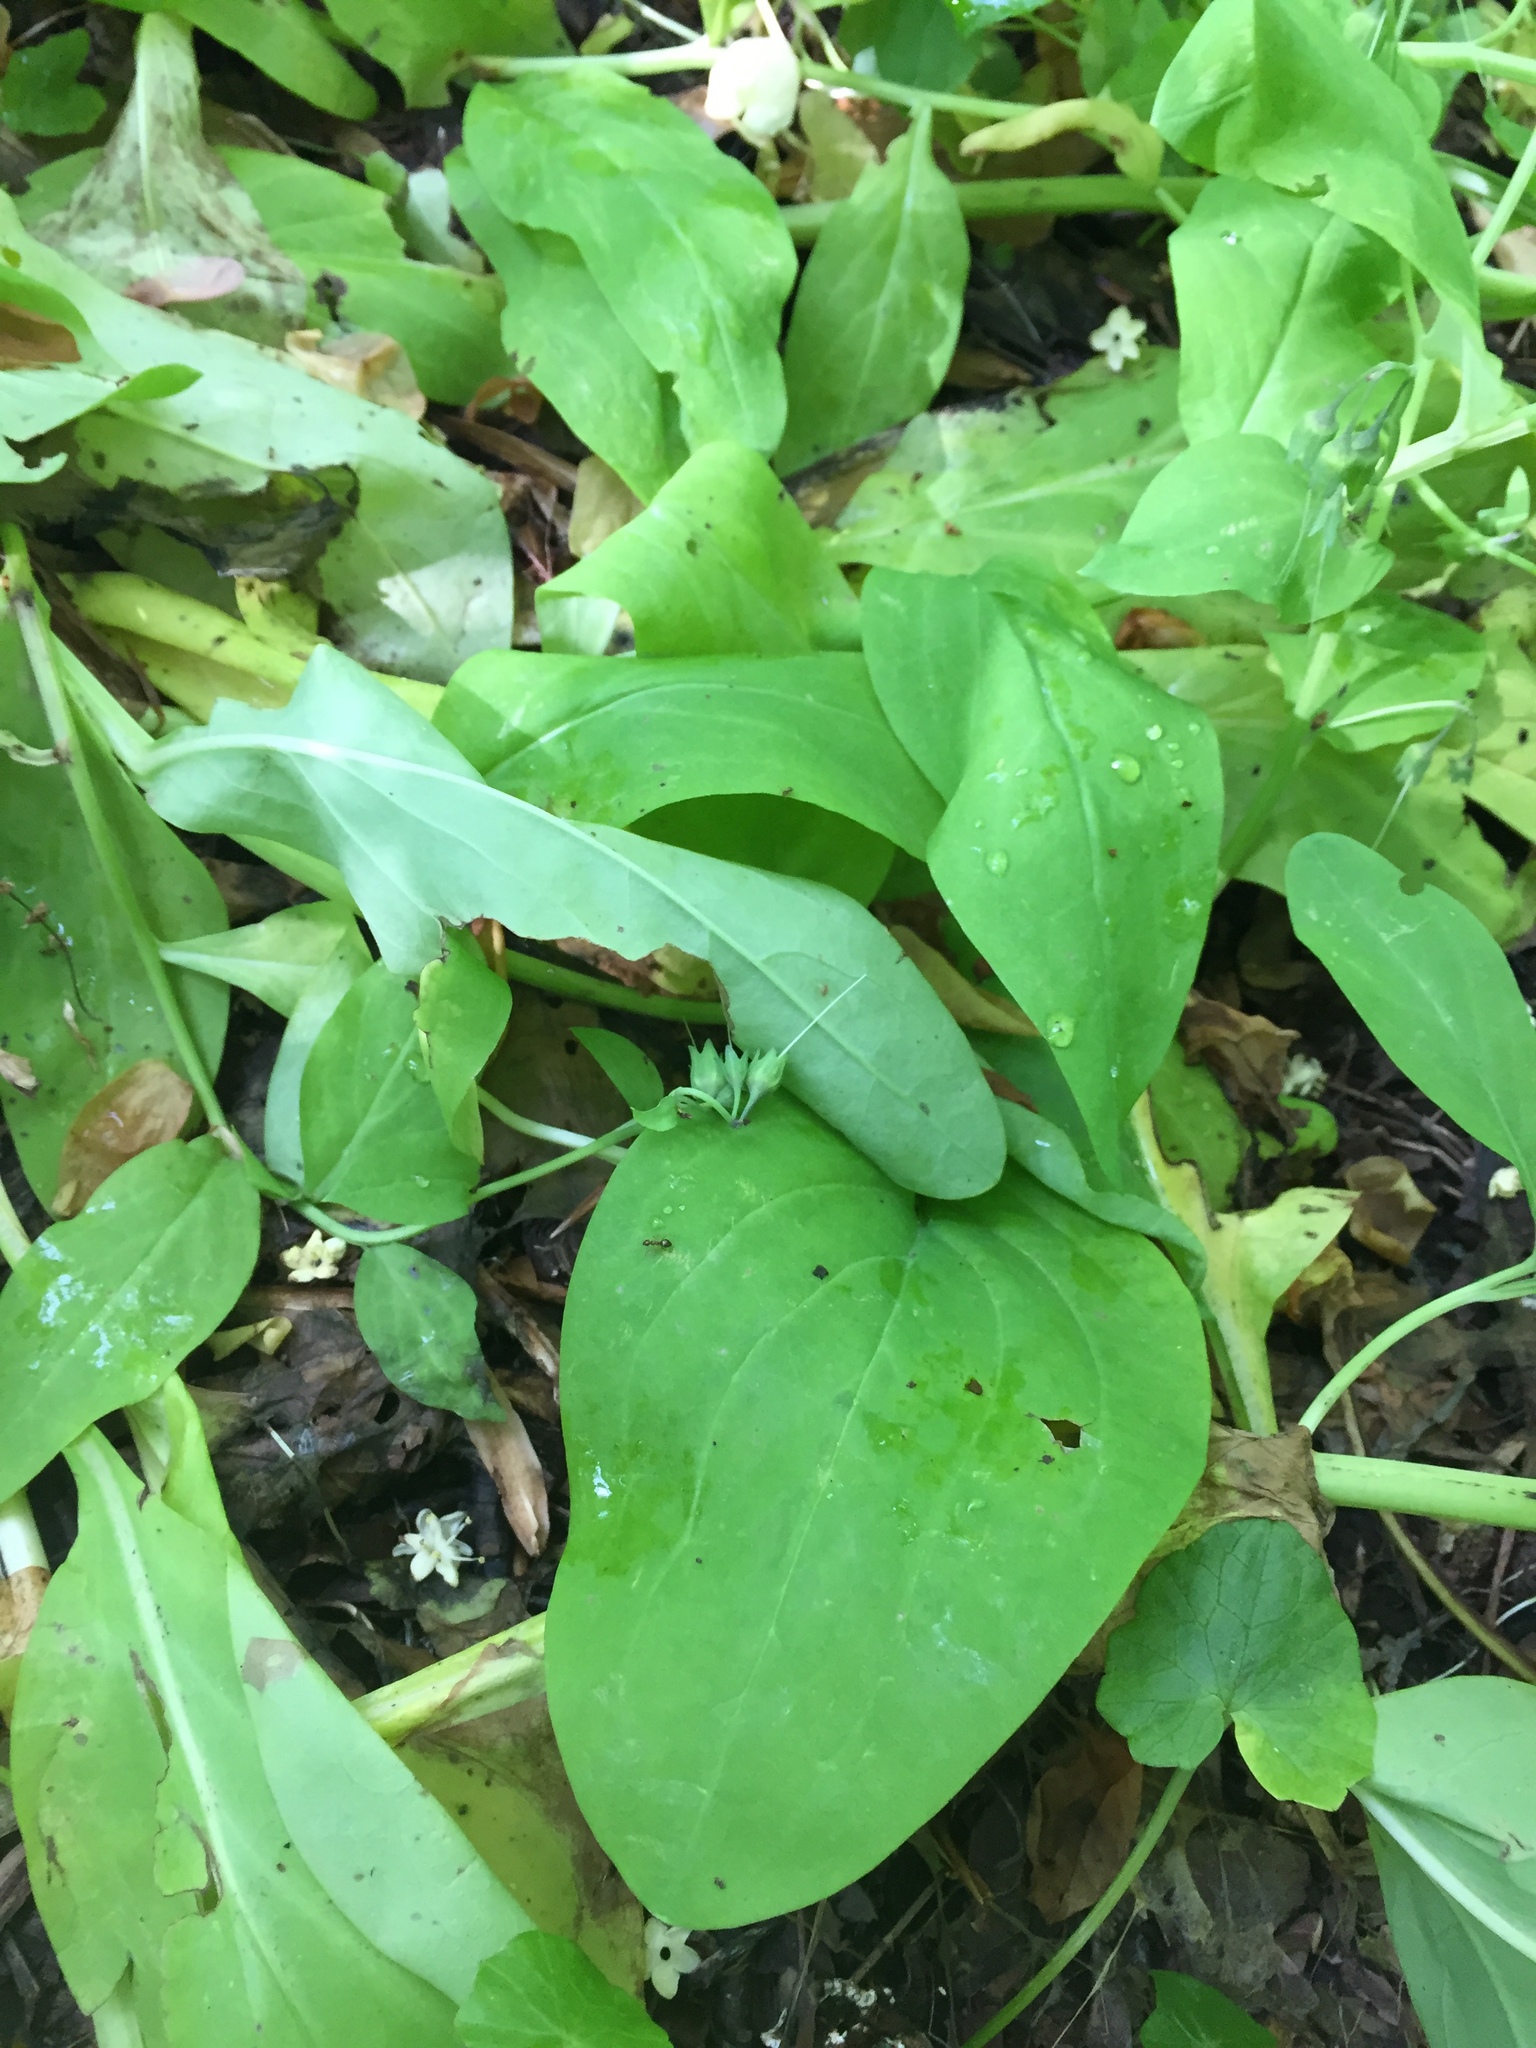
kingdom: Plantae
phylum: Tracheophyta
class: Magnoliopsida
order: Boraginales
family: Boraginaceae
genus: Mertensia
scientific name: Mertensia virginica
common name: Virginia bluebells
